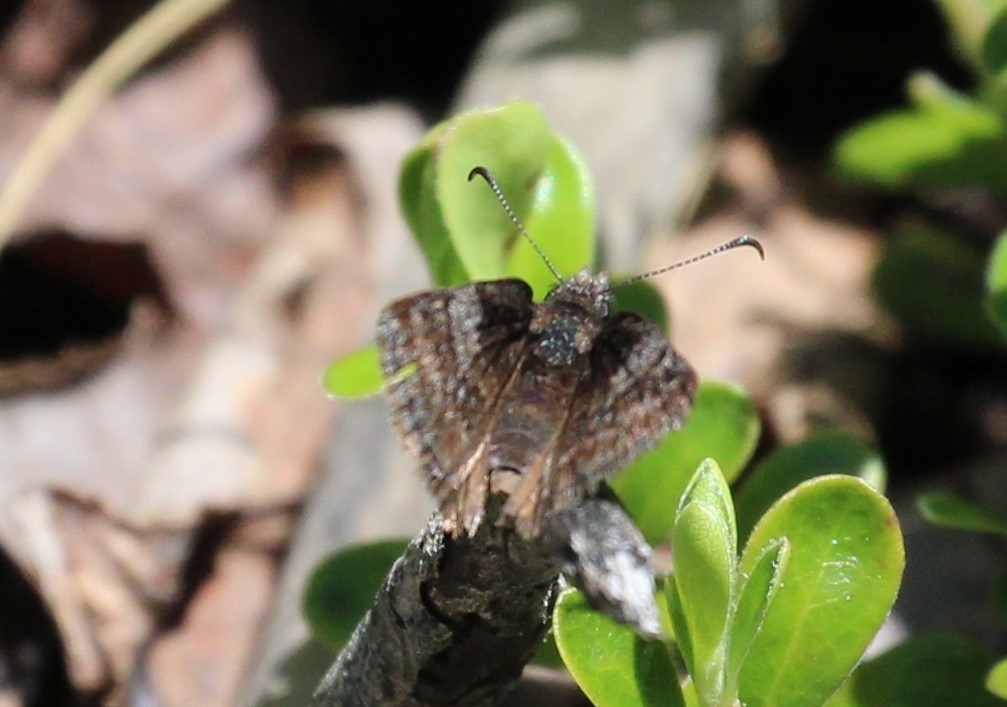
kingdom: Animalia
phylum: Arthropoda
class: Insecta
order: Lepidoptera
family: Hesperiidae
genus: Erynnis
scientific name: Erynnis icelus
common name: Dreamy duskywing
